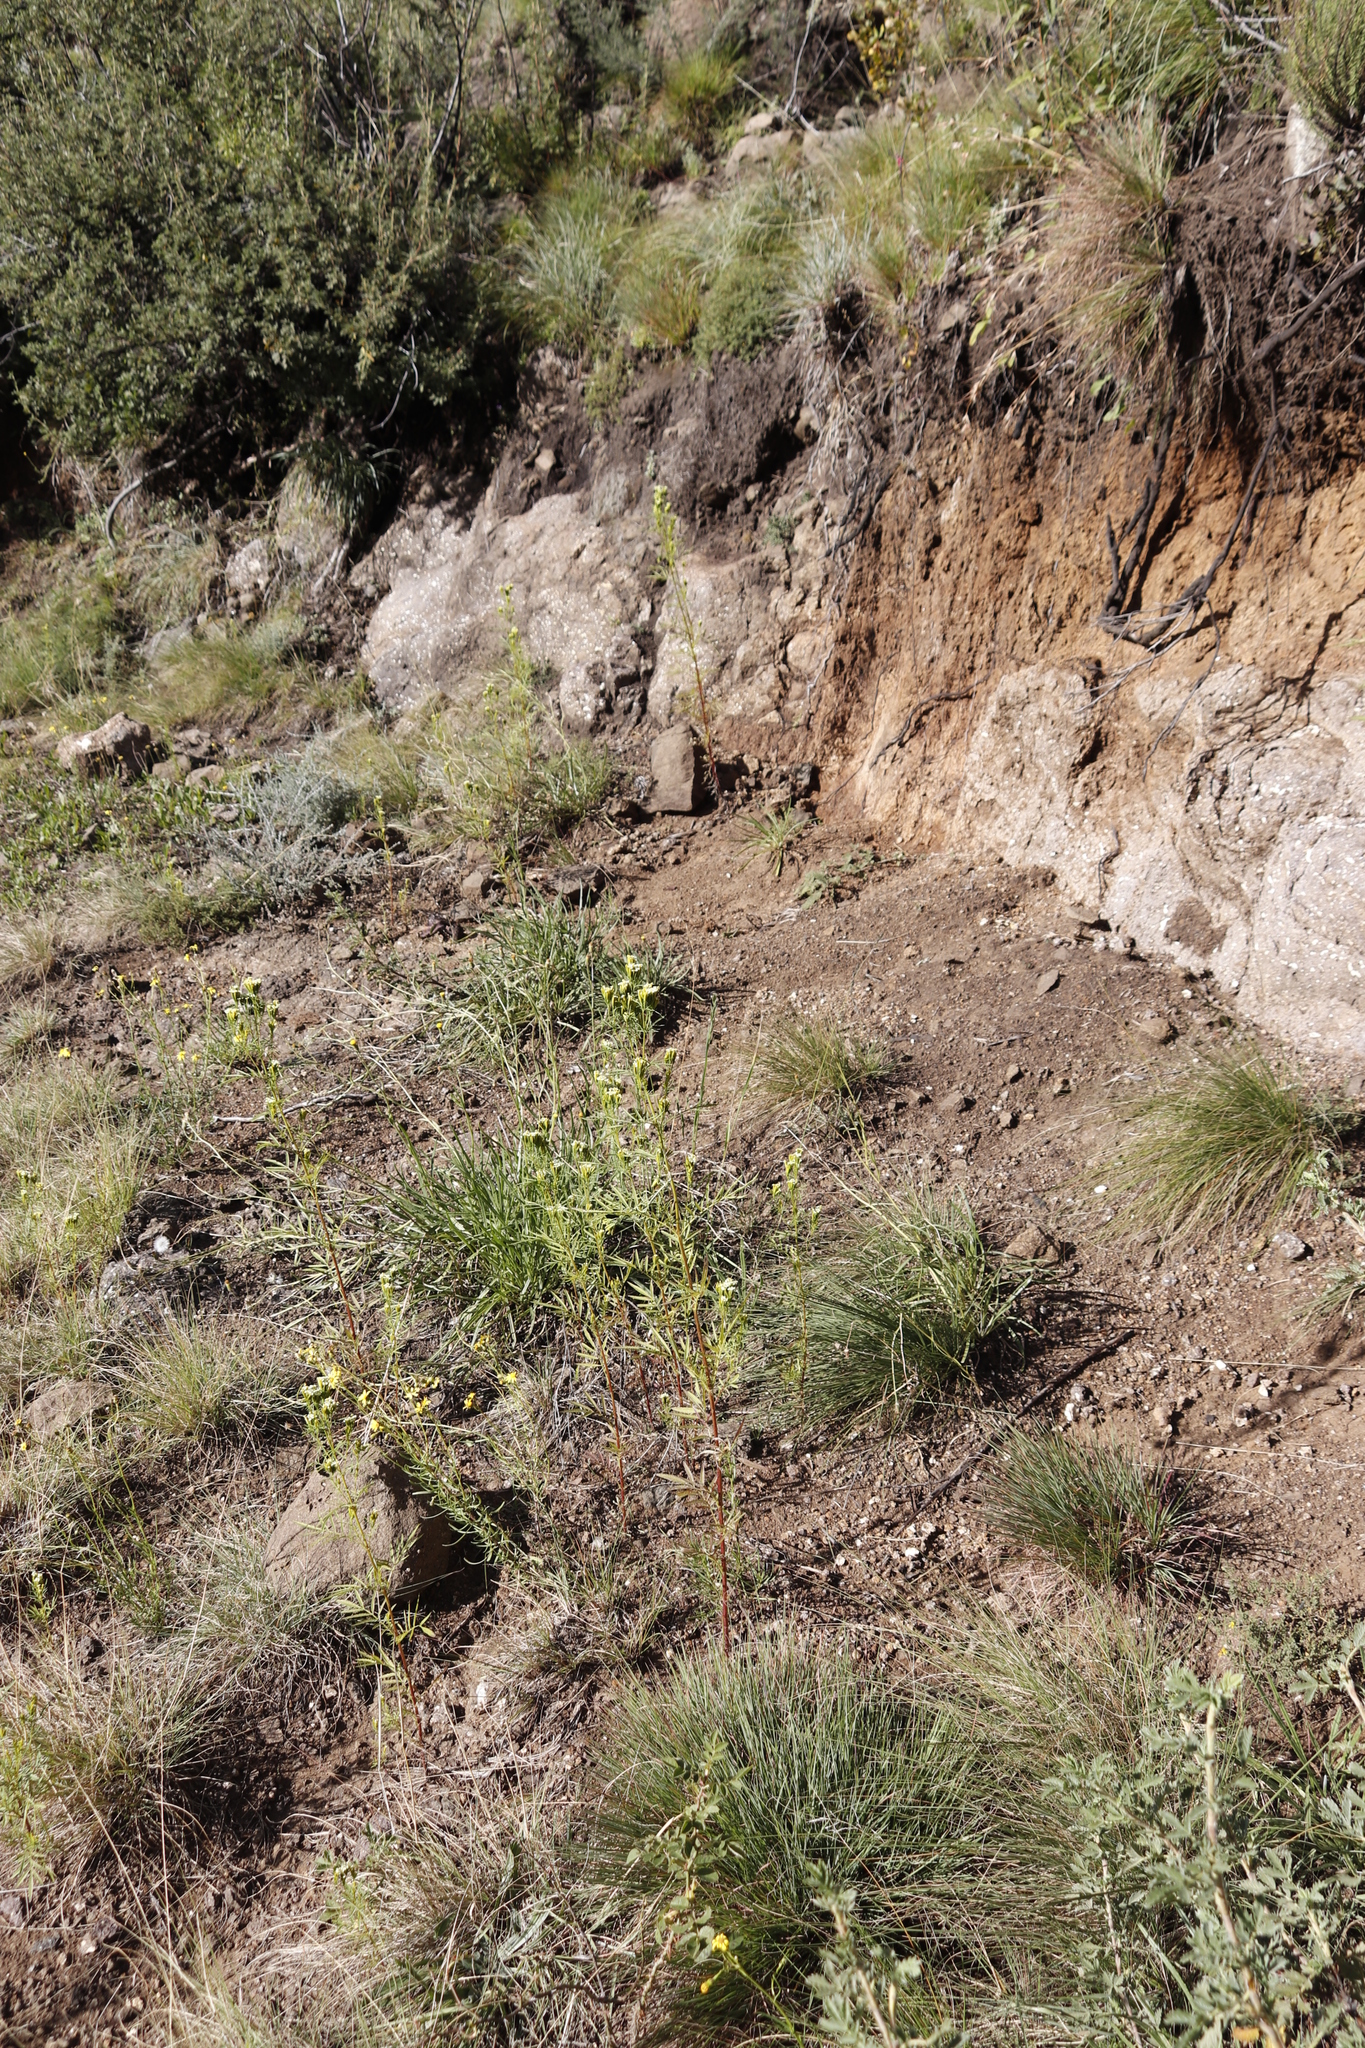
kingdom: Plantae
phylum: Tracheophyta
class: Magnoliopsida
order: Asterales
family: Asteraceae
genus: Tagetes
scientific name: Tagetes minuta
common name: Muster john henry
